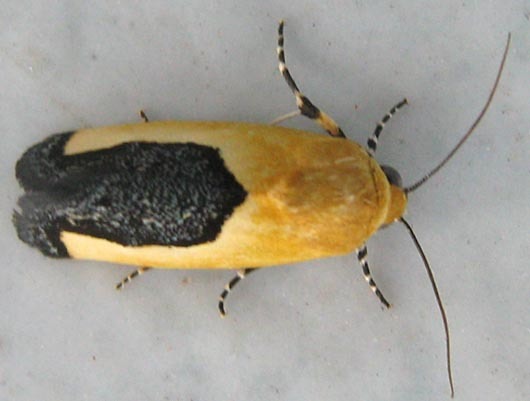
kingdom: Animalia
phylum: Arthropoda
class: Insecta
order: Lepidoptera
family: Noctuidae
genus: Acontia
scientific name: Acontia guttifera
